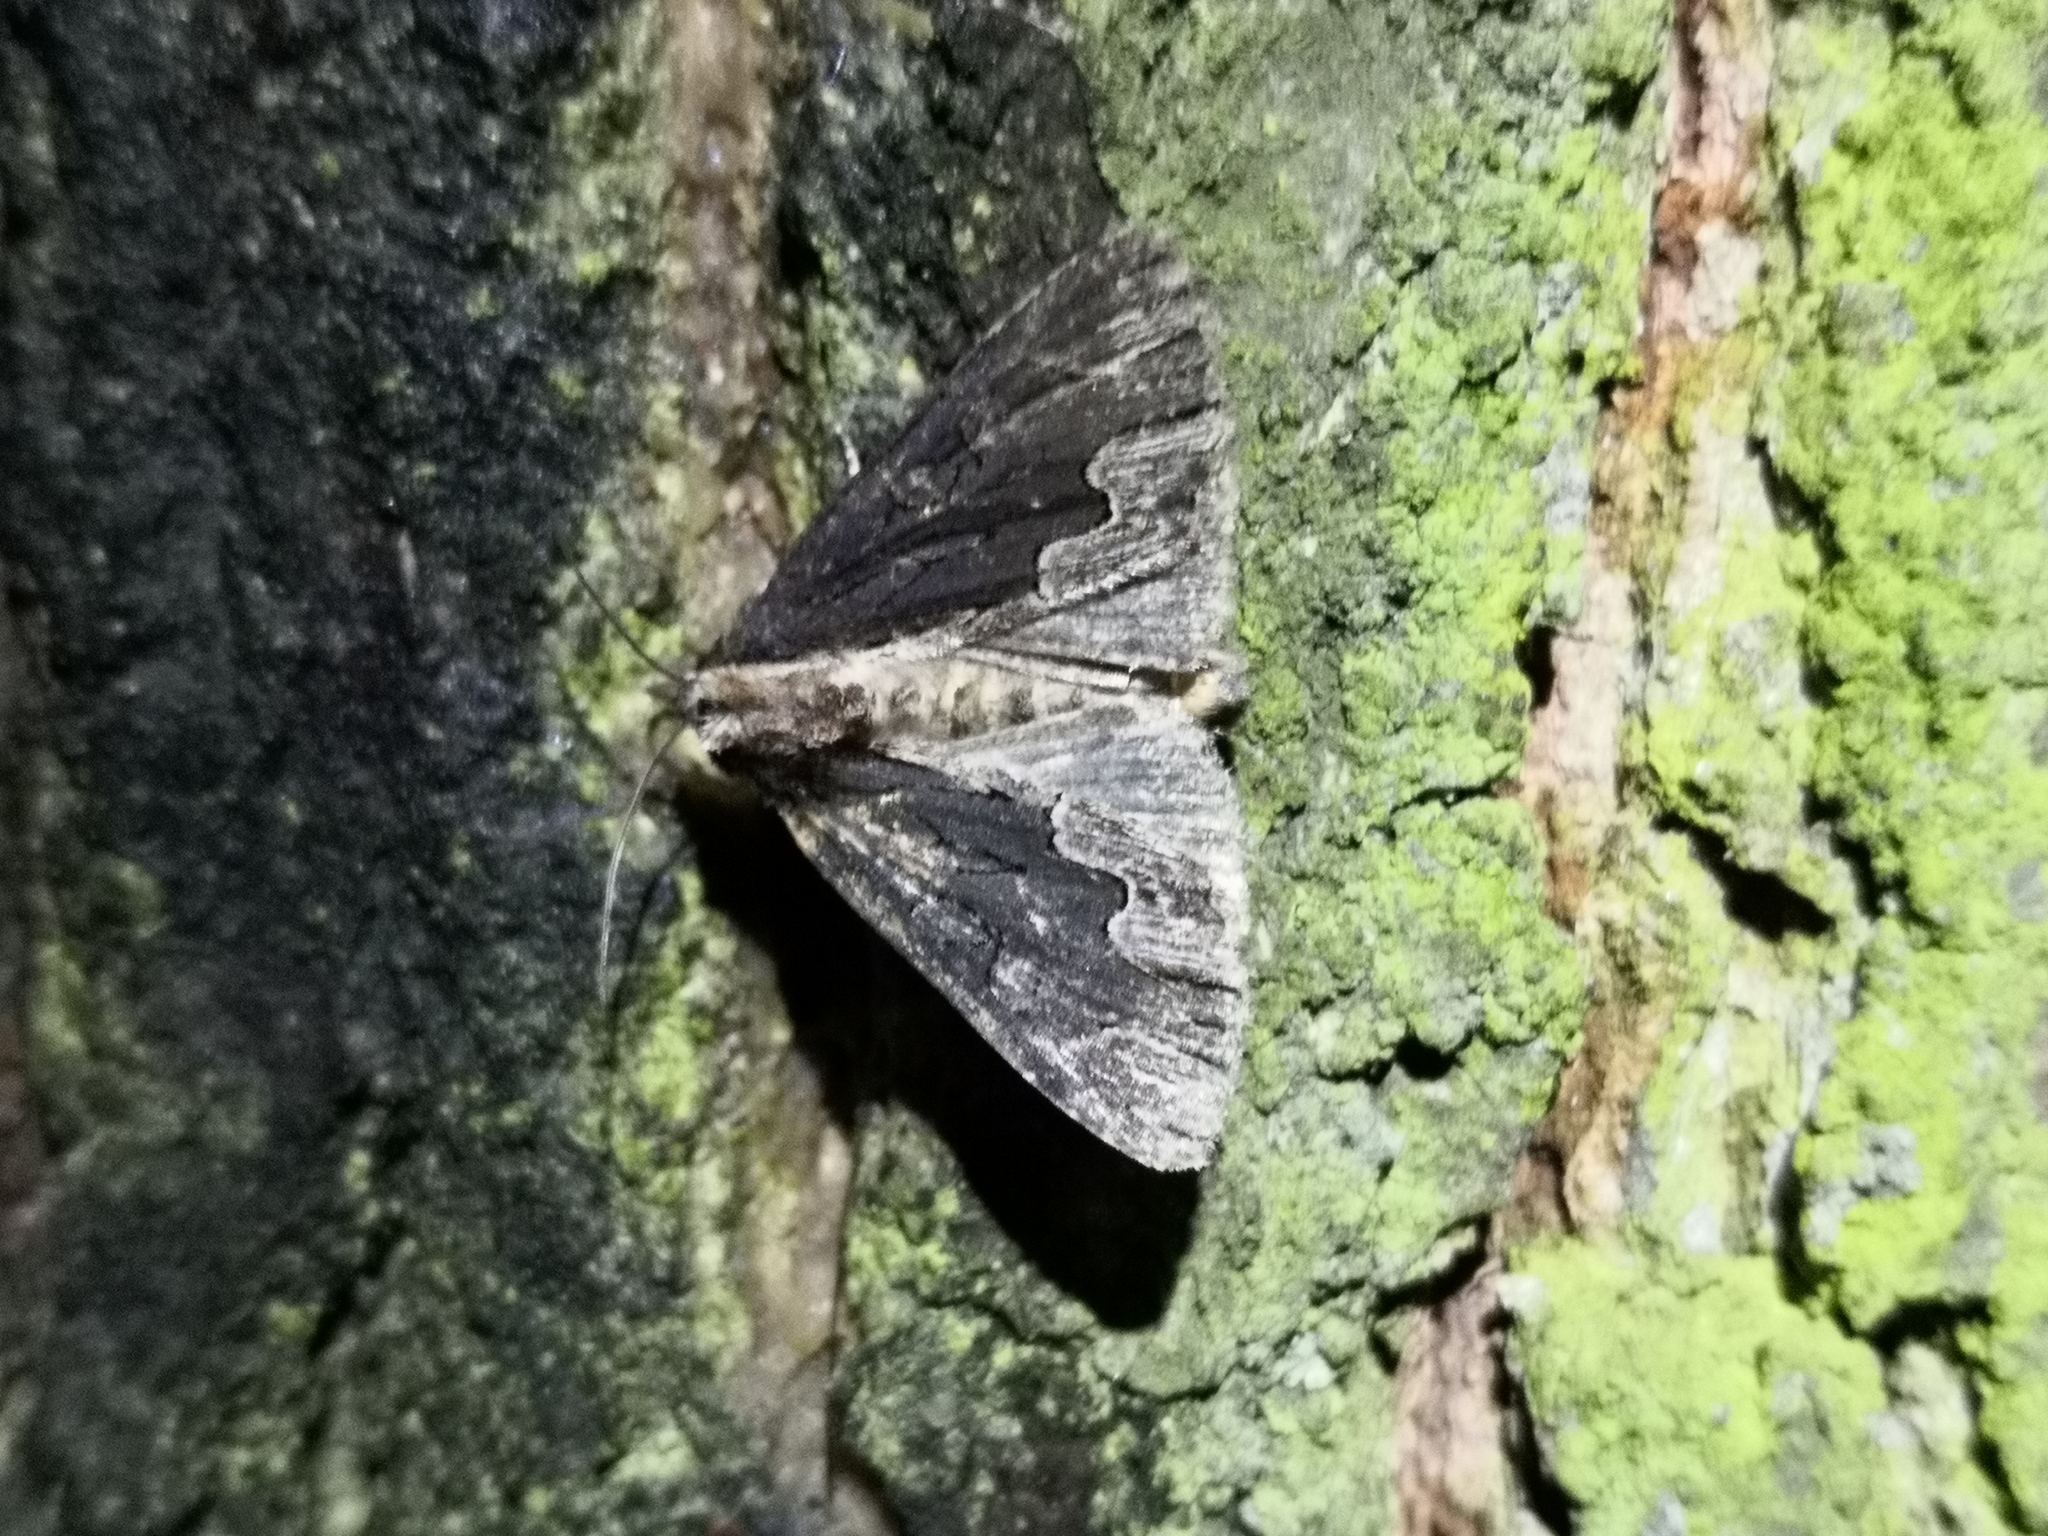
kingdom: Animalia
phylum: Arthropoda
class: Insecta
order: Lepidoptera
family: Noctuidae
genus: Dypterygia
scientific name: Dypterygia scabriuscula
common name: Bird's wing
